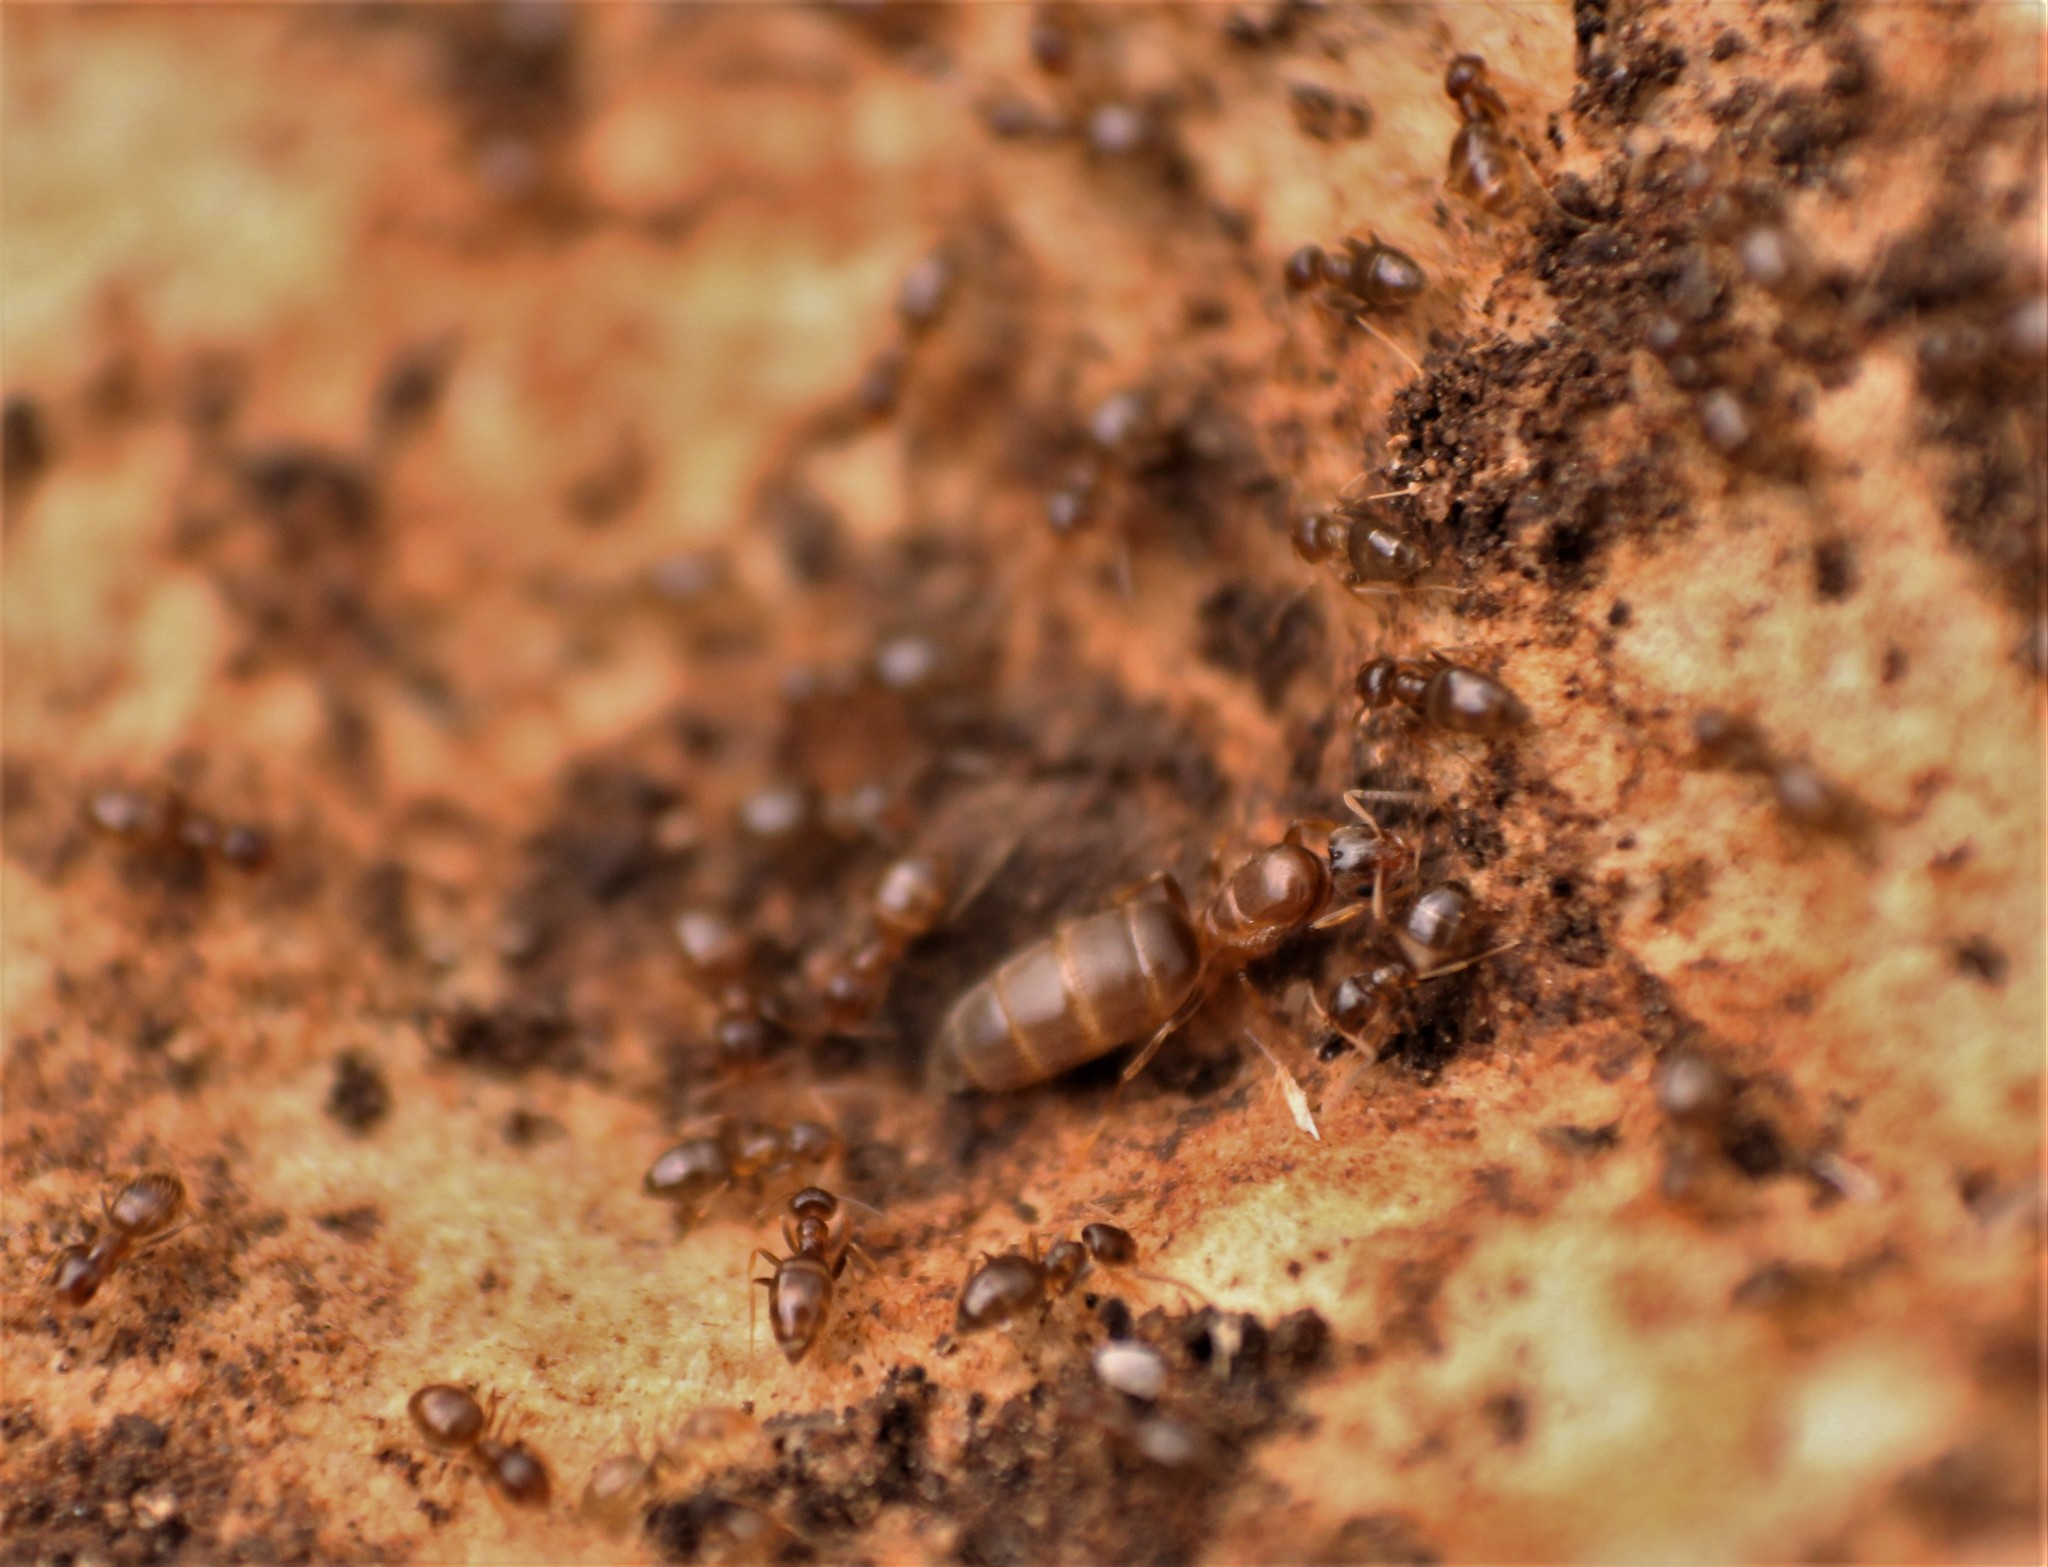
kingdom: Animalia
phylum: Arthropoda
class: Insecta
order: Hymenoptera
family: Formicidae
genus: Brachymyrmex
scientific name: Brachymyrmex
